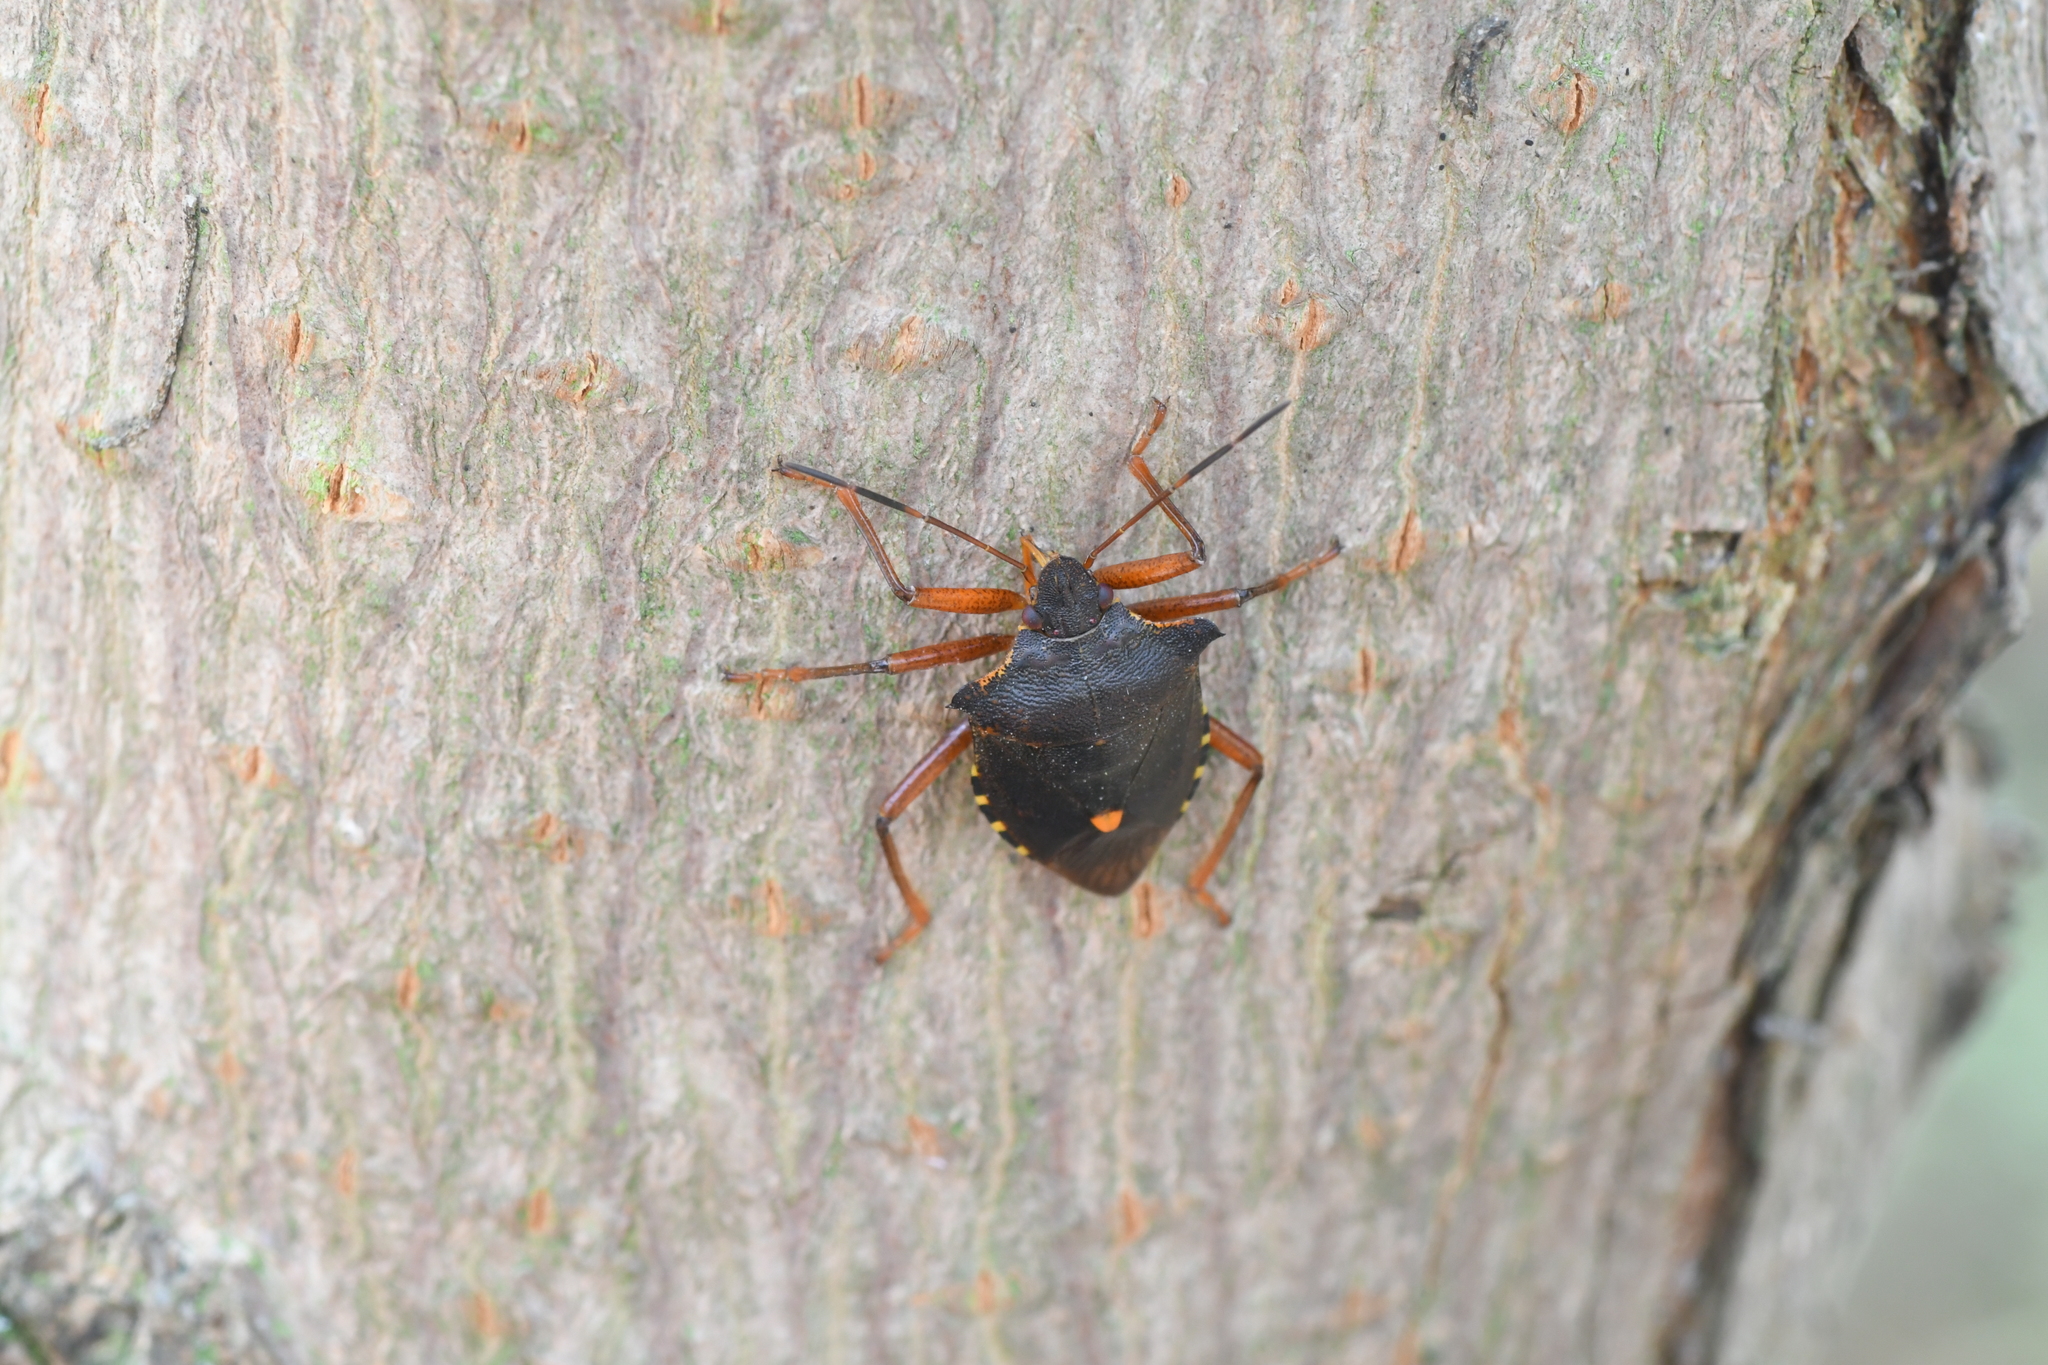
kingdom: Animalia
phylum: Arthropoda
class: Insecta
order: Hemiptera
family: Pentatomidae
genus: Pentatoma
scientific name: Pentatoma rufipes
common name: Forest bug
